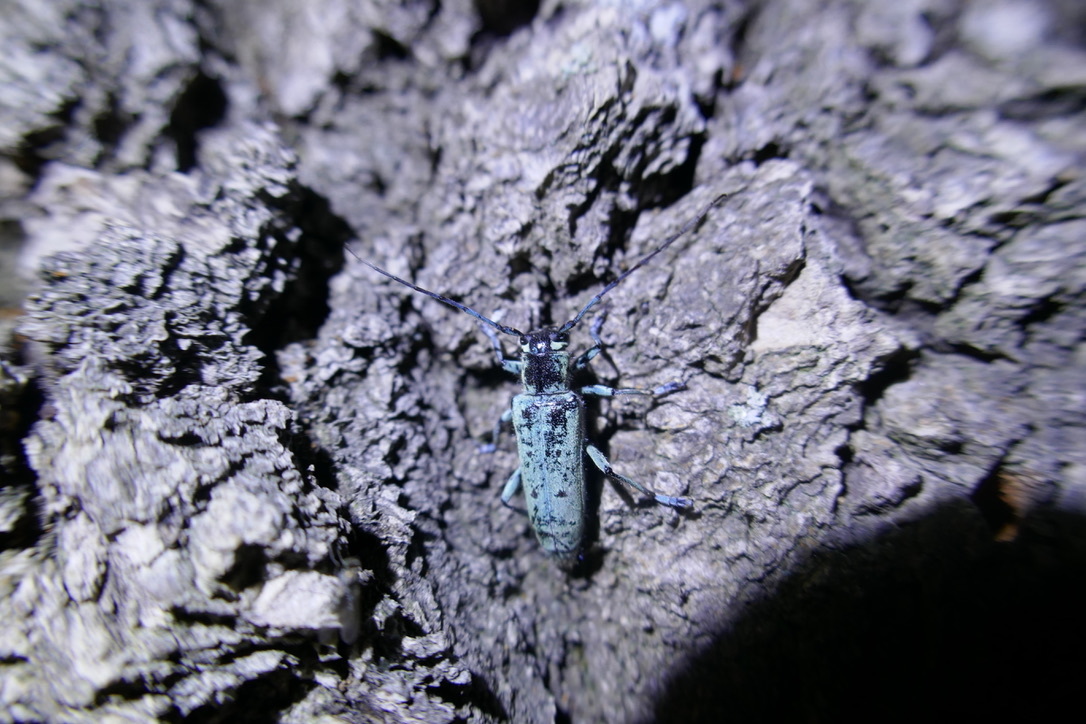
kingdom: Animalia
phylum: Arthropoda
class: Insecta
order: Coleoptera
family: Cerambycidae
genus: Saperda
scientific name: Saperda octopunctata
